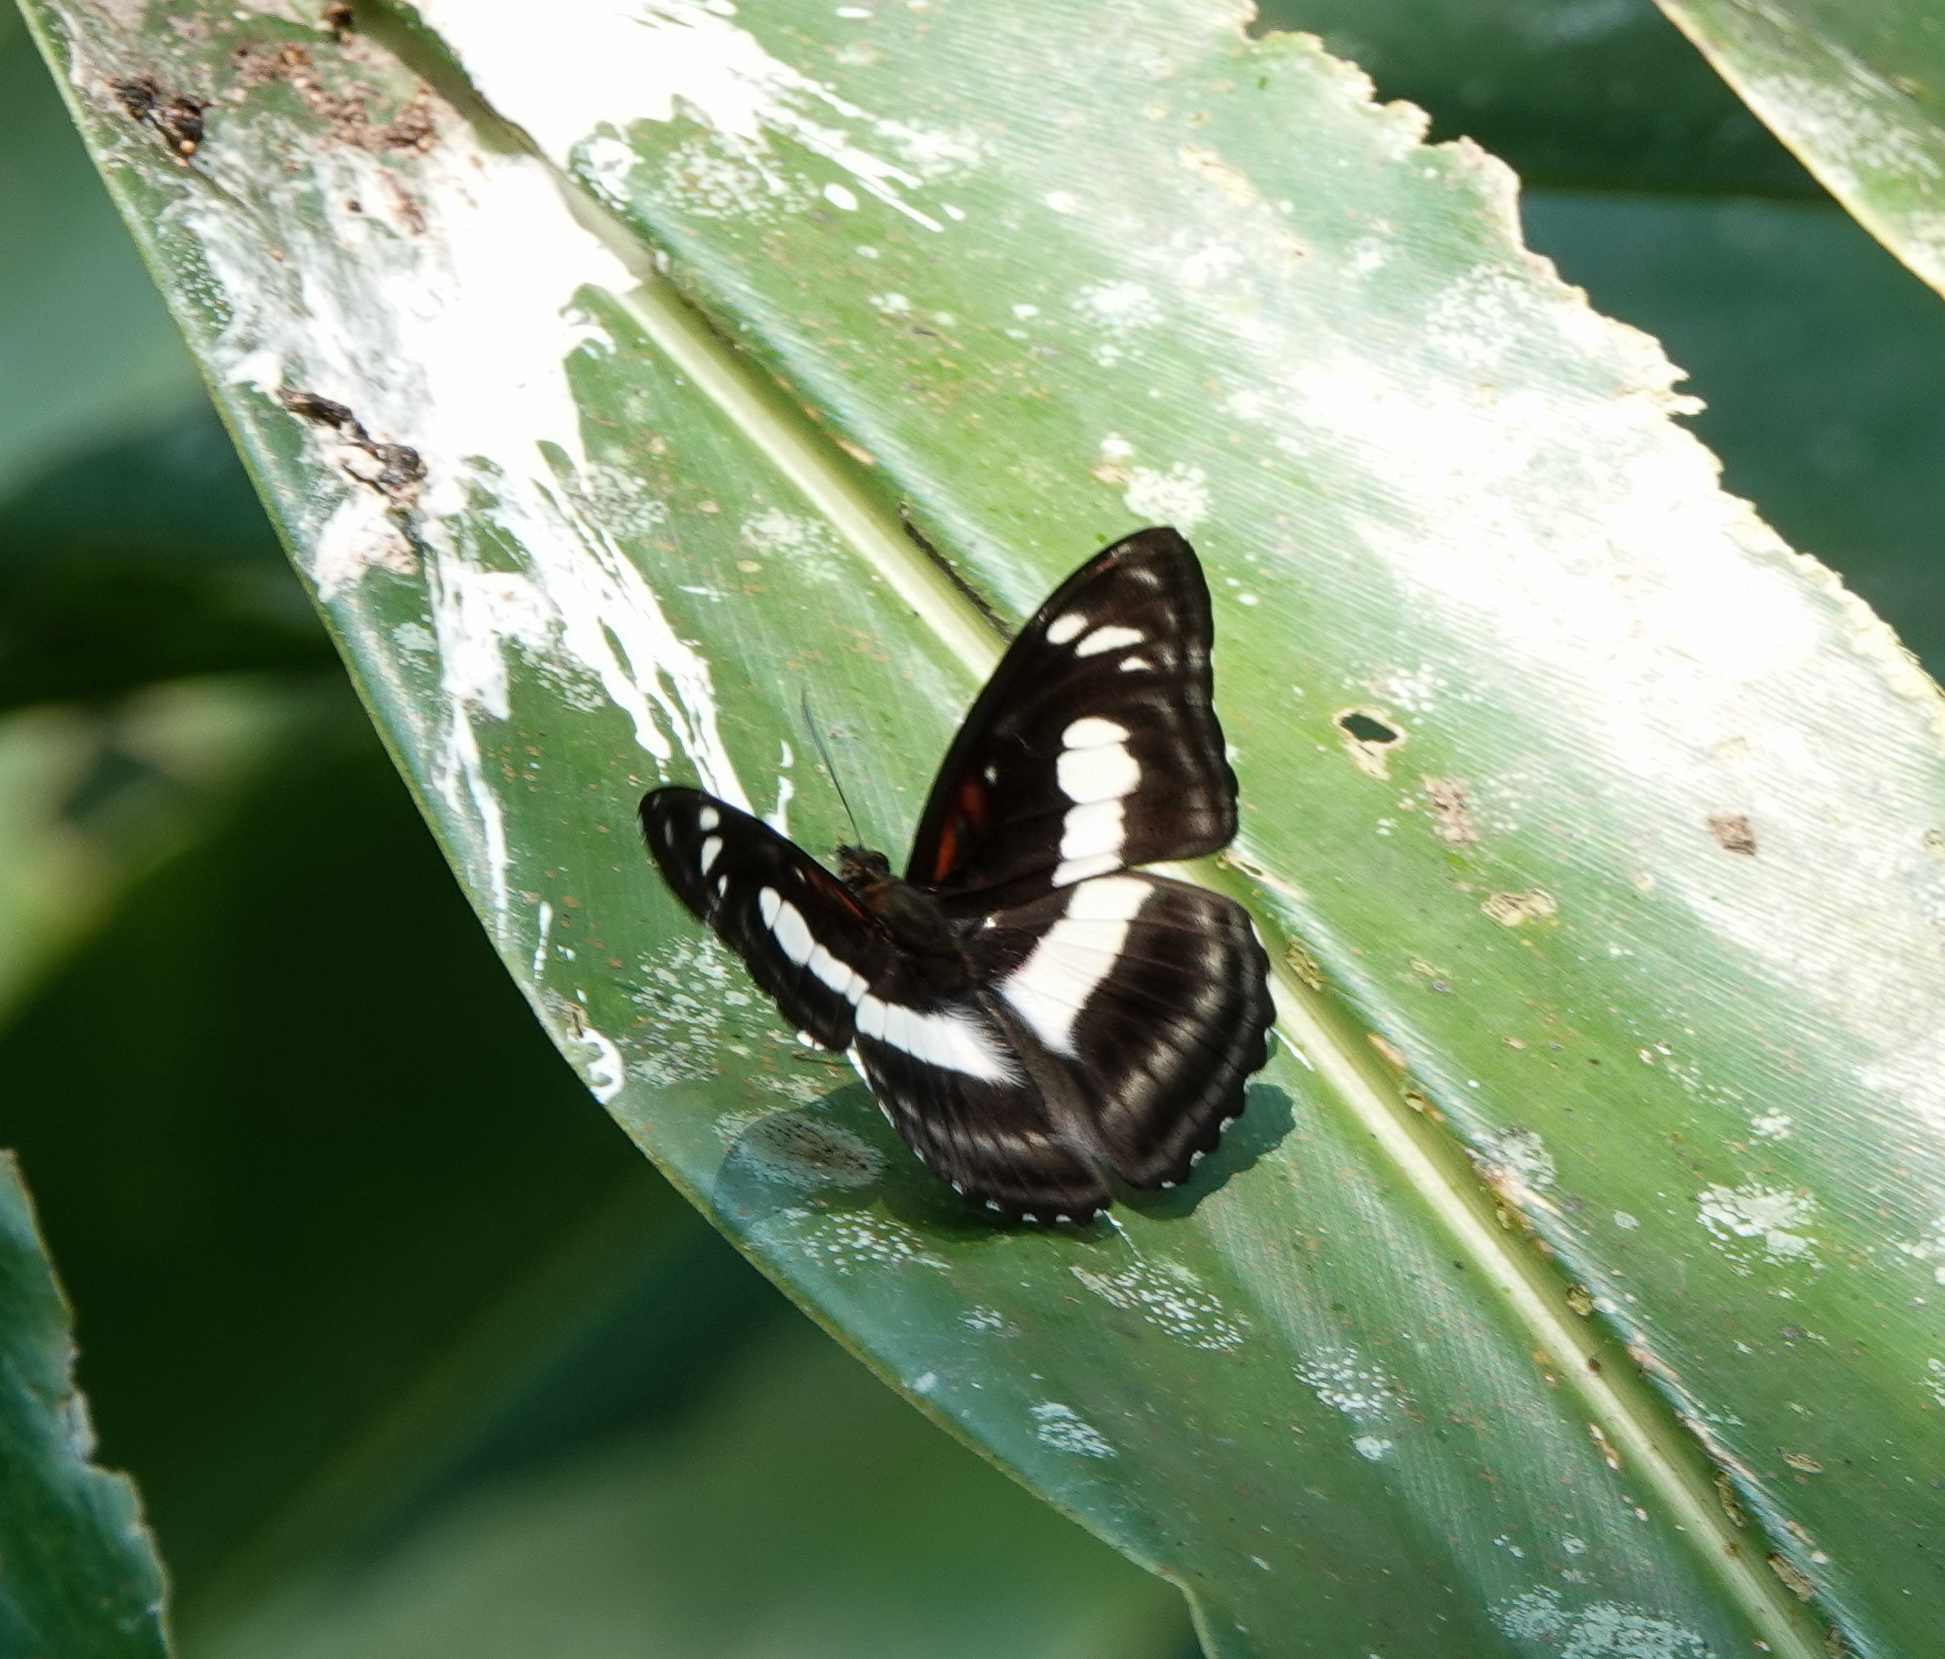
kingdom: Animalia
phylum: Arthropoda
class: Insecta
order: Lepidoptera
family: Nymphalidae
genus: Parathyma
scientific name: Parathyma selenophora
